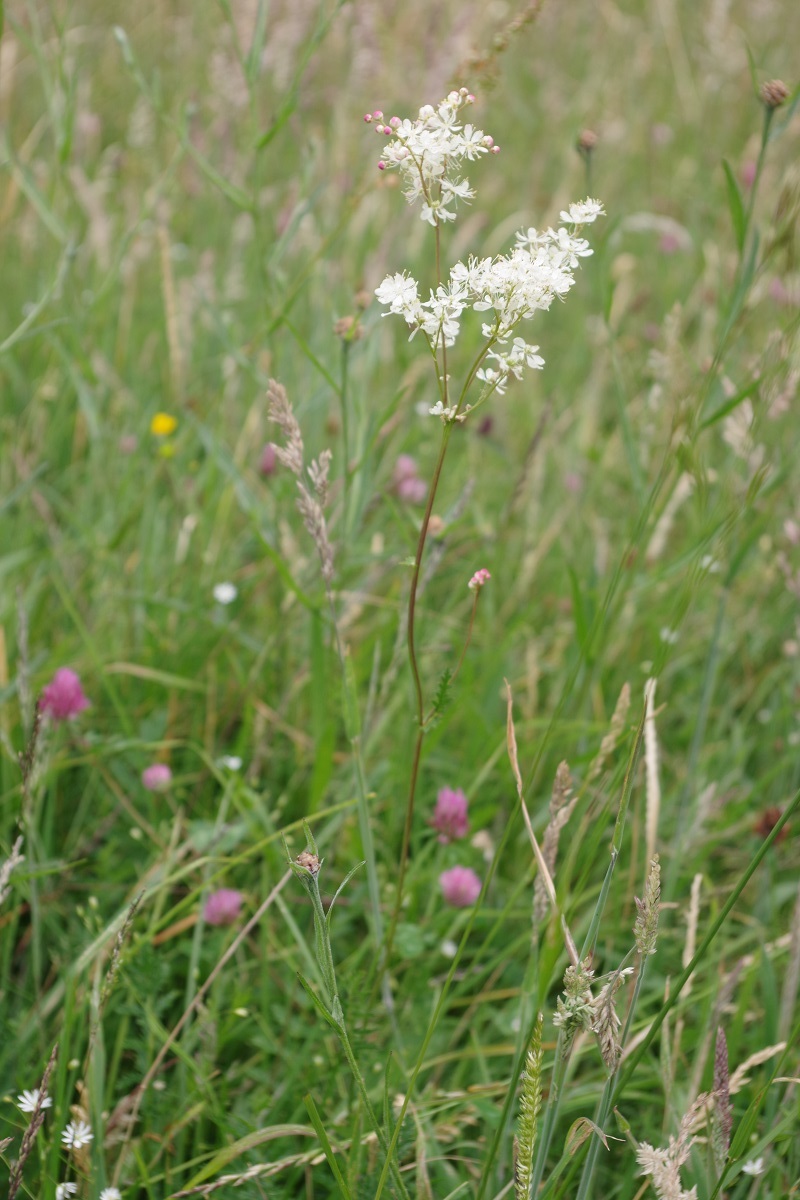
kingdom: Plantae
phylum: Tracheophyta
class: Magnoliopsida
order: Rosales
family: Rosaceae
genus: Filipendula
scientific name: Filipendula vulgaris
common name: Dropwort
